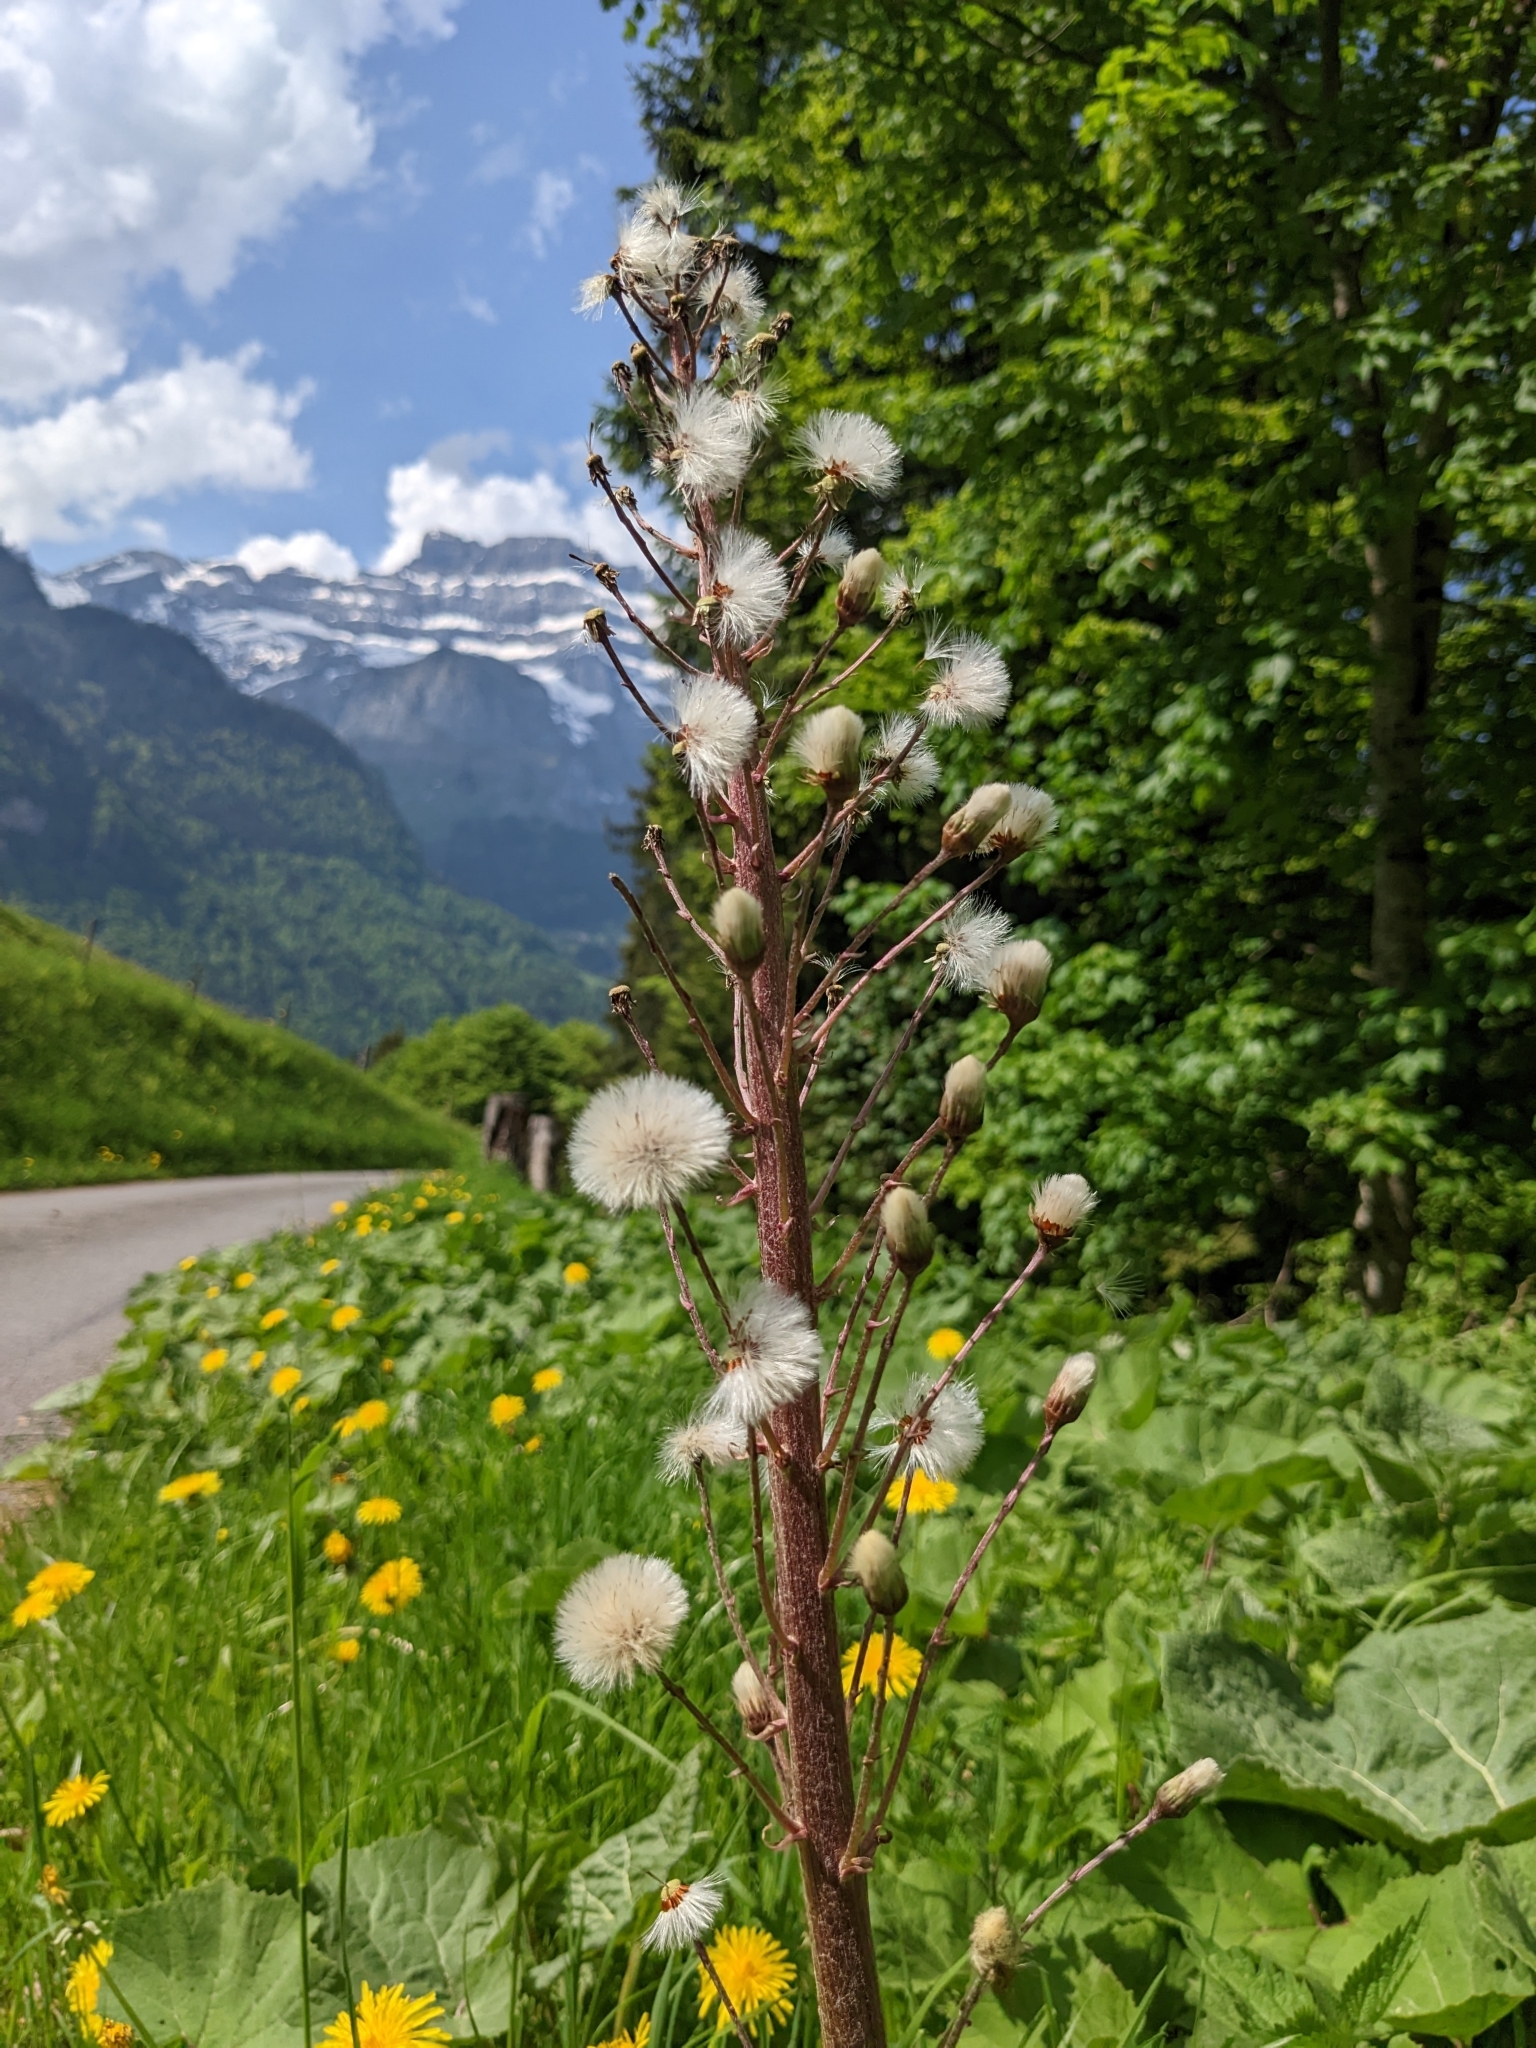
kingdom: Plantae
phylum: Tracheophyta
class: Magnoliopsida
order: Asterales
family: Asteraceae
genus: Petasites
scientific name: Petasites hybridus
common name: Butterbur
